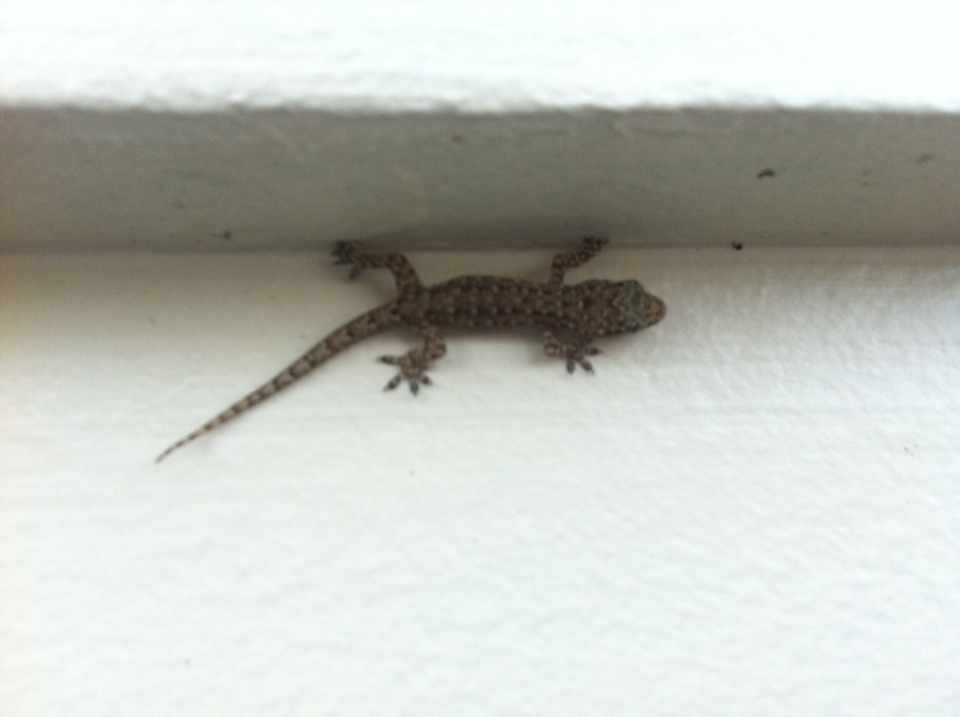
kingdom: Animalia
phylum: Chordata
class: Squamata
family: Gekkonidae
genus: Hemidactylus
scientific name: Hemidactylus garnotii
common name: Indo-pacific gecko
